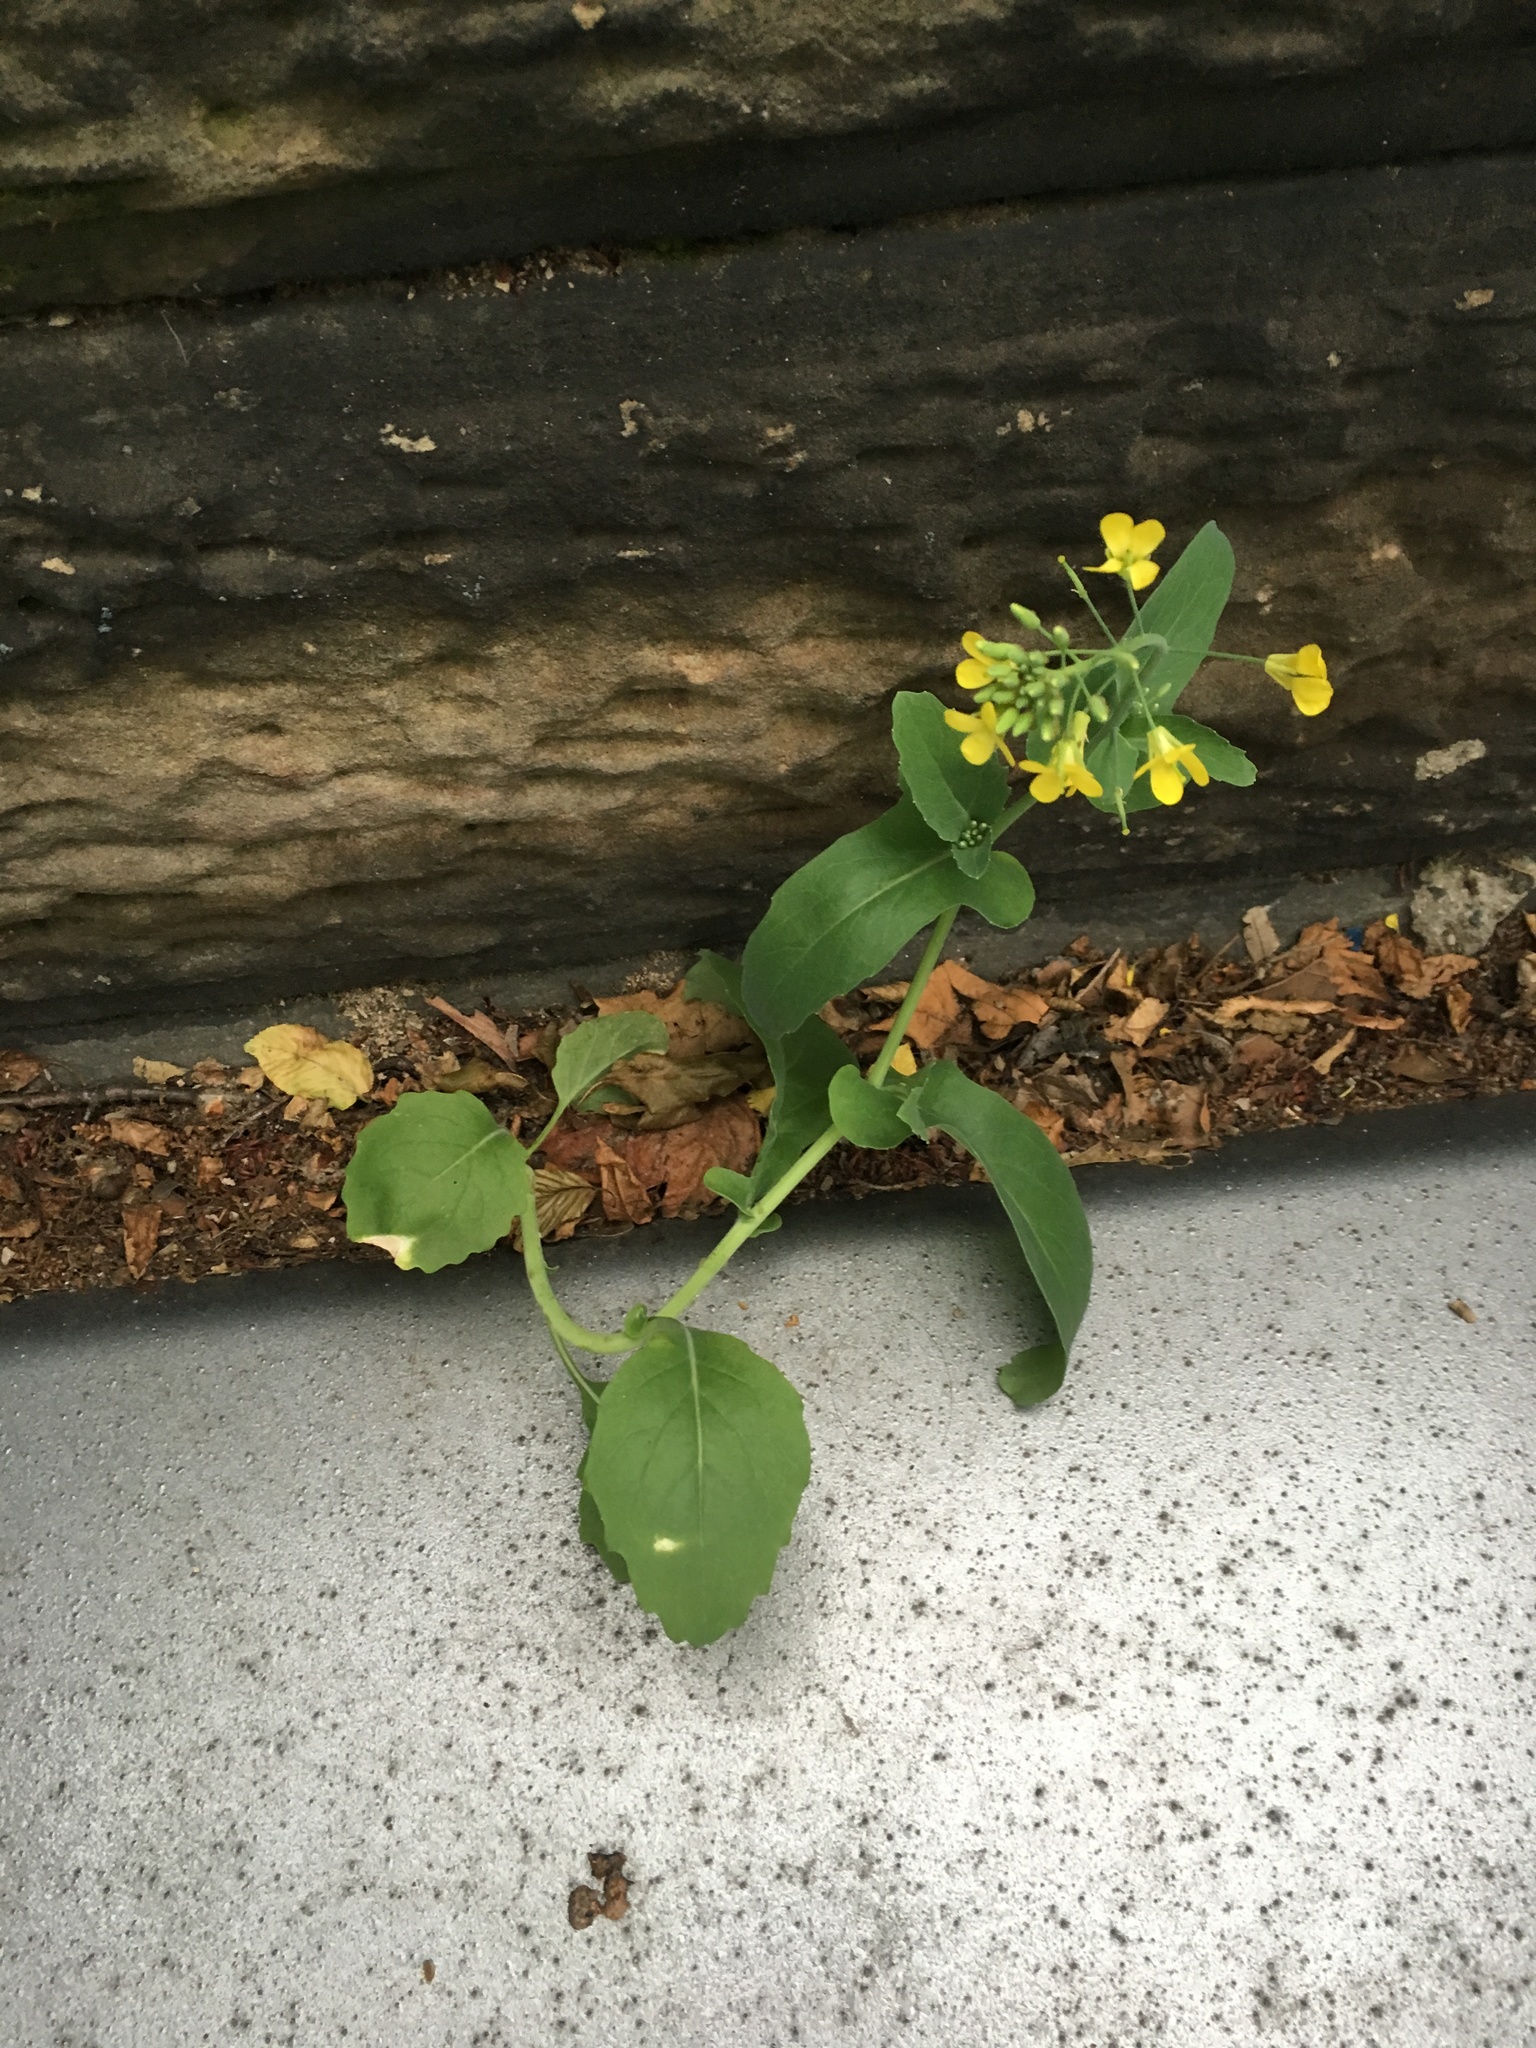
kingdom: Plantae
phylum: Tracheophyta
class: Magnoliopsida
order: Brassicales
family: Brassicaceae
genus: Brassica
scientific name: Brassica rapa
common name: Field mustard
